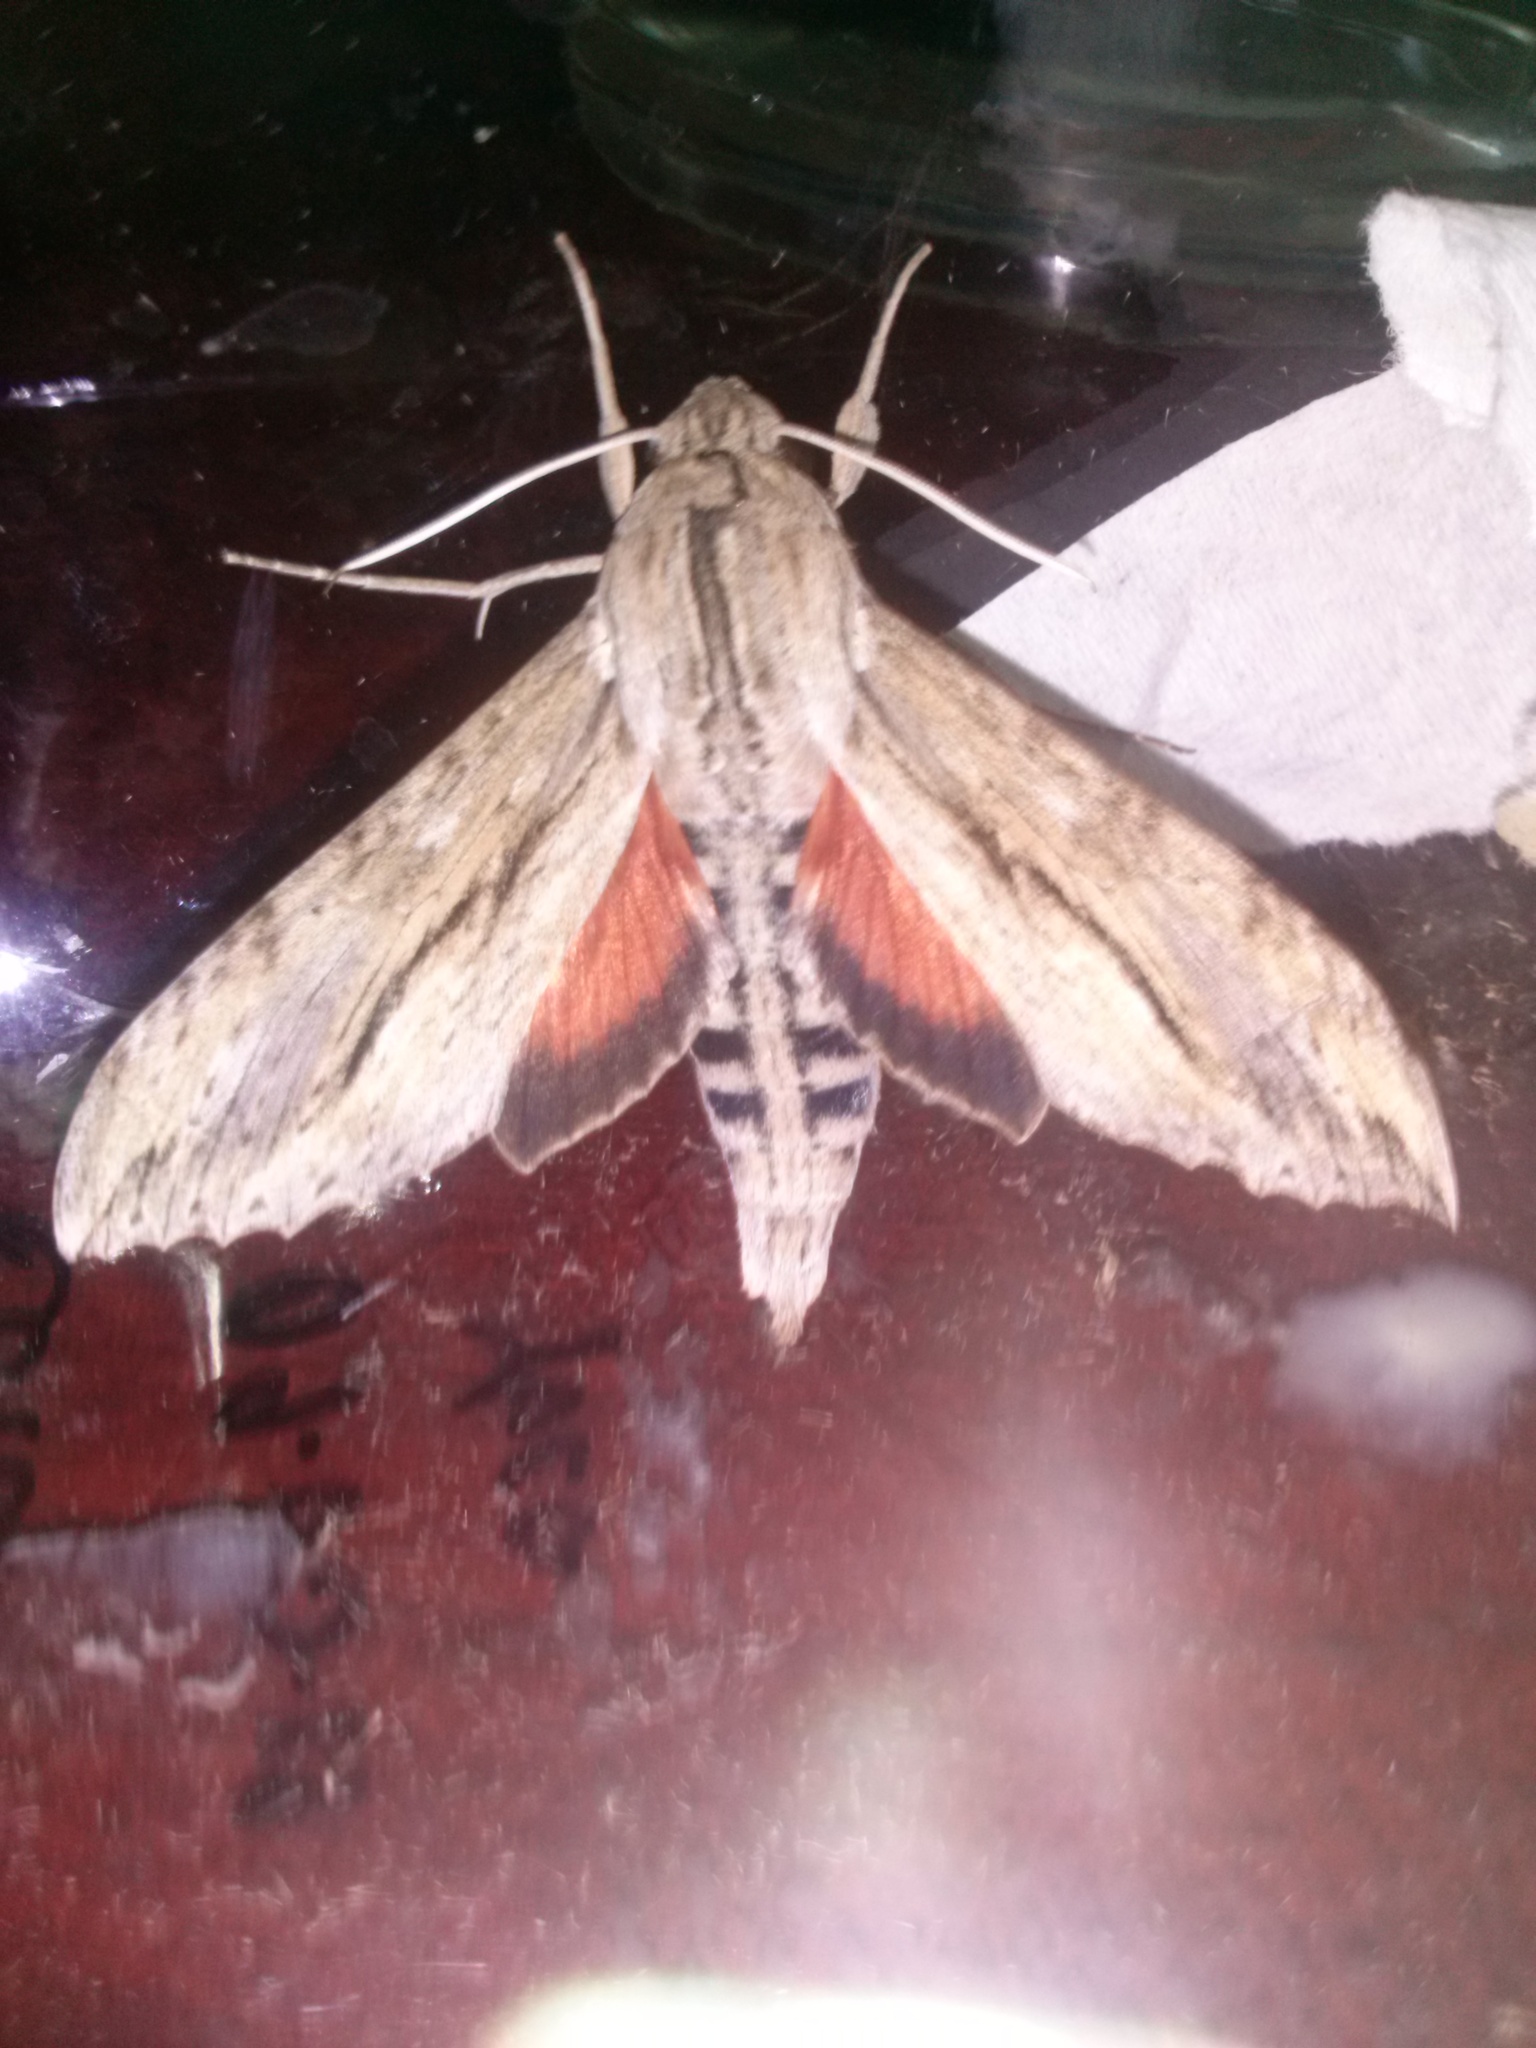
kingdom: Animalia
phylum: Arthropoda
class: Insecta
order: Lepidoptera
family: Sphingidae
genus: Erinnyis
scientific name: Erinnyis ello
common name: Ello sphinx
